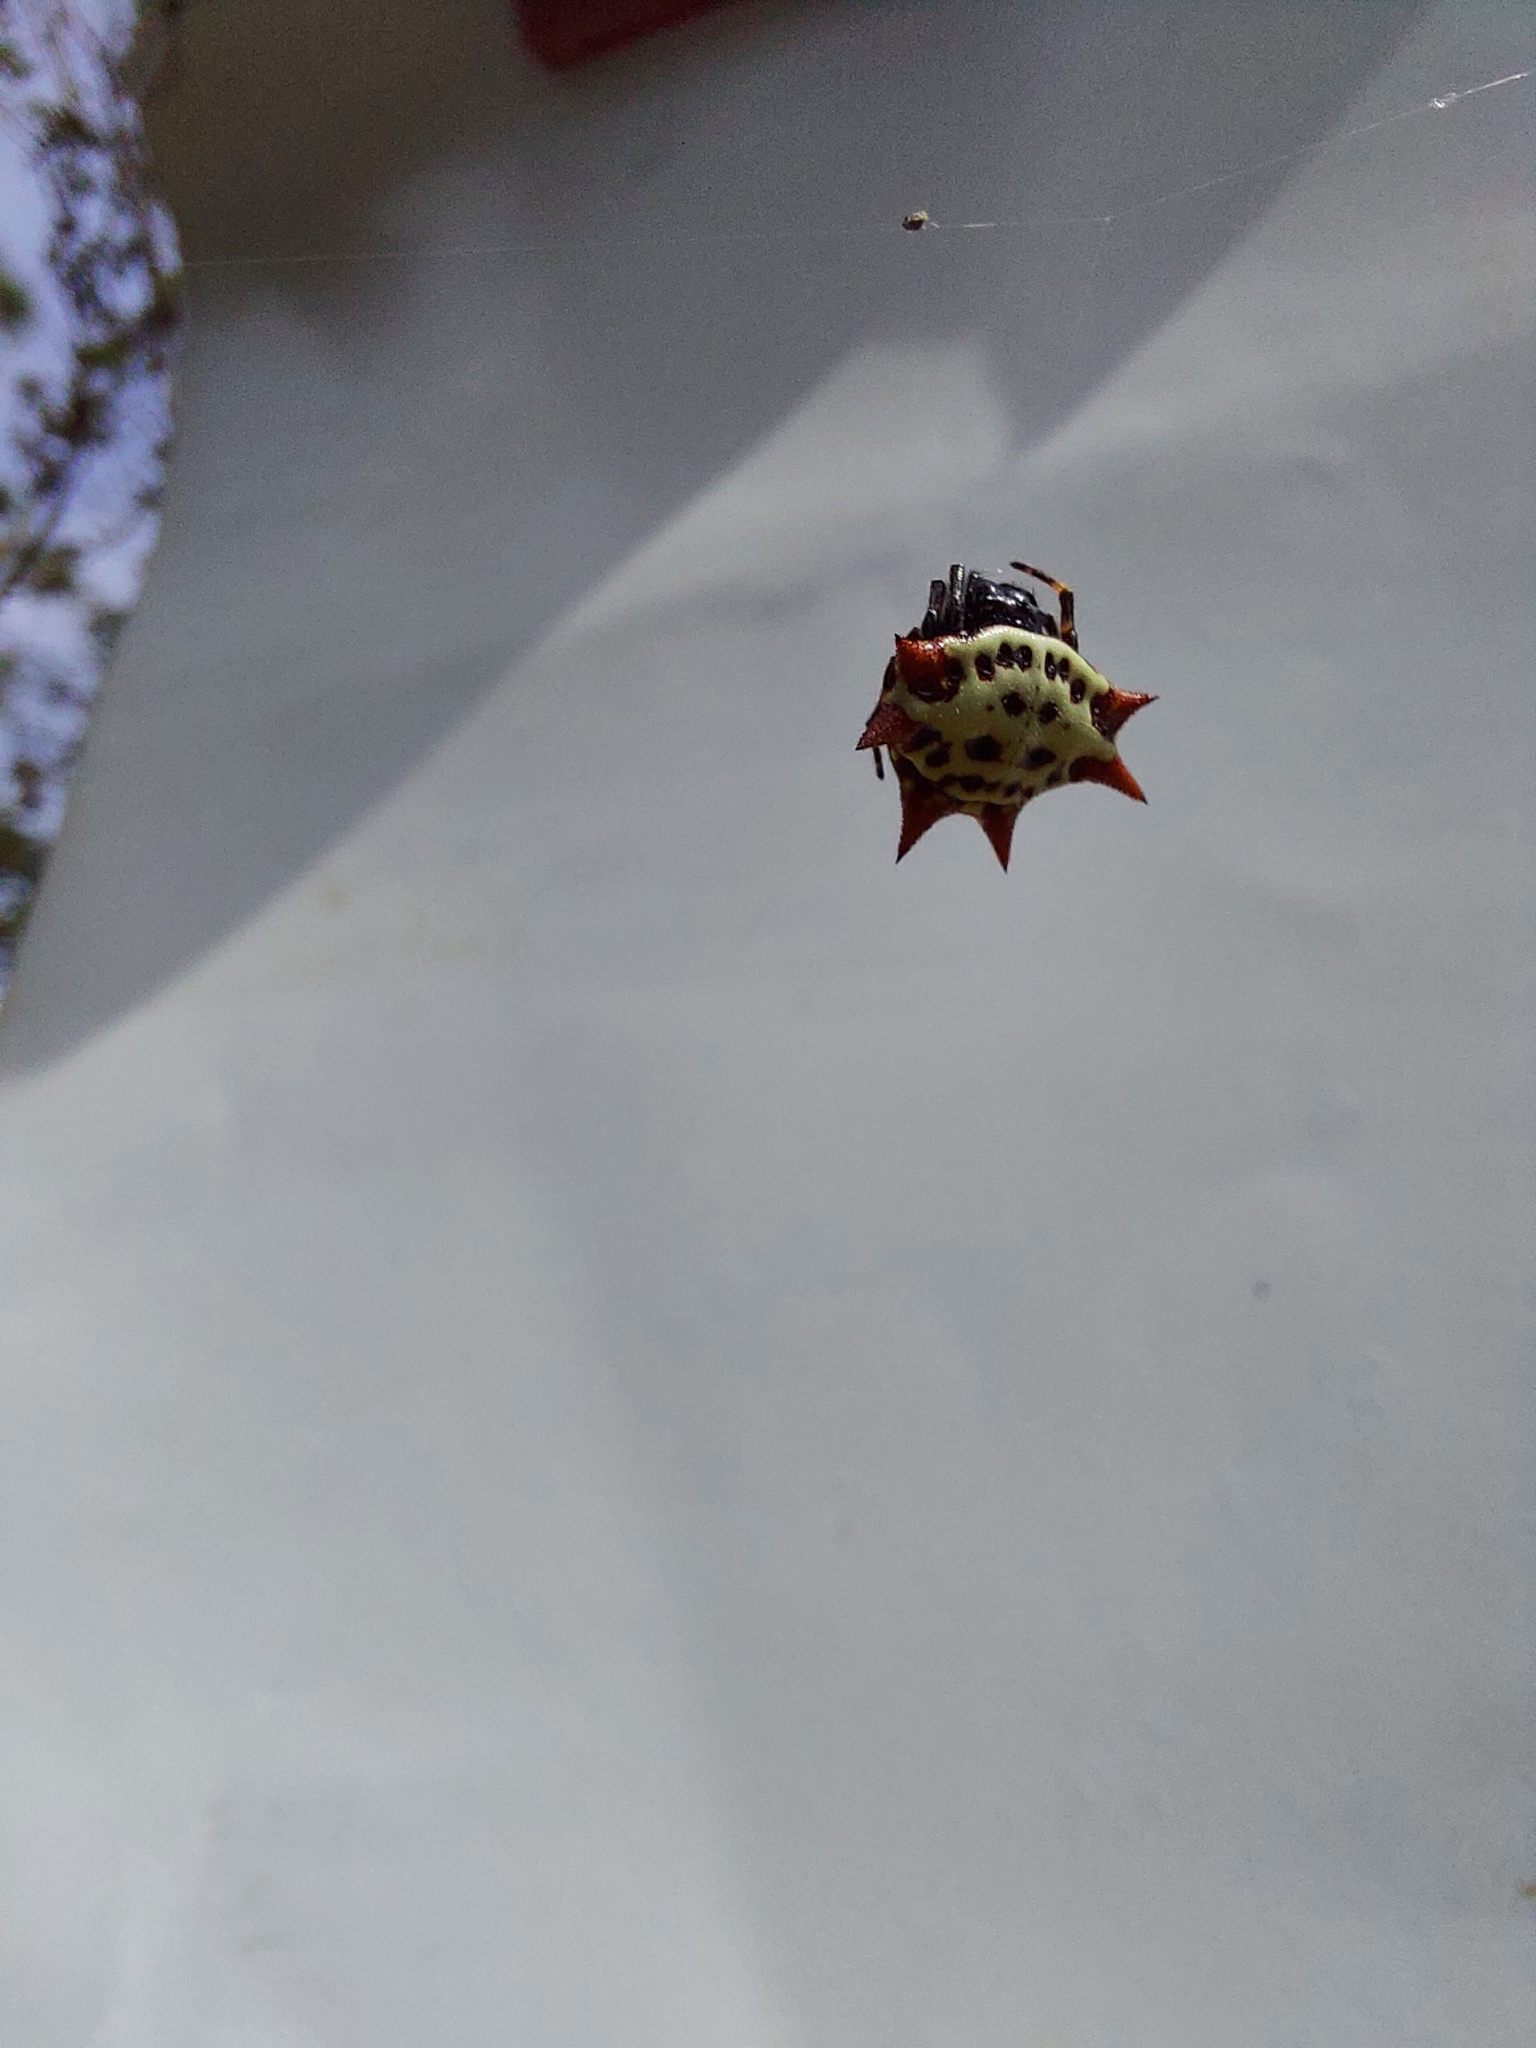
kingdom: Animalia
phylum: Arthropoda
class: Arachnida
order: Araneae
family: Araneidae
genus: Gasteracantha
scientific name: Gasteracantha cancriformis
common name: Orb weavers
